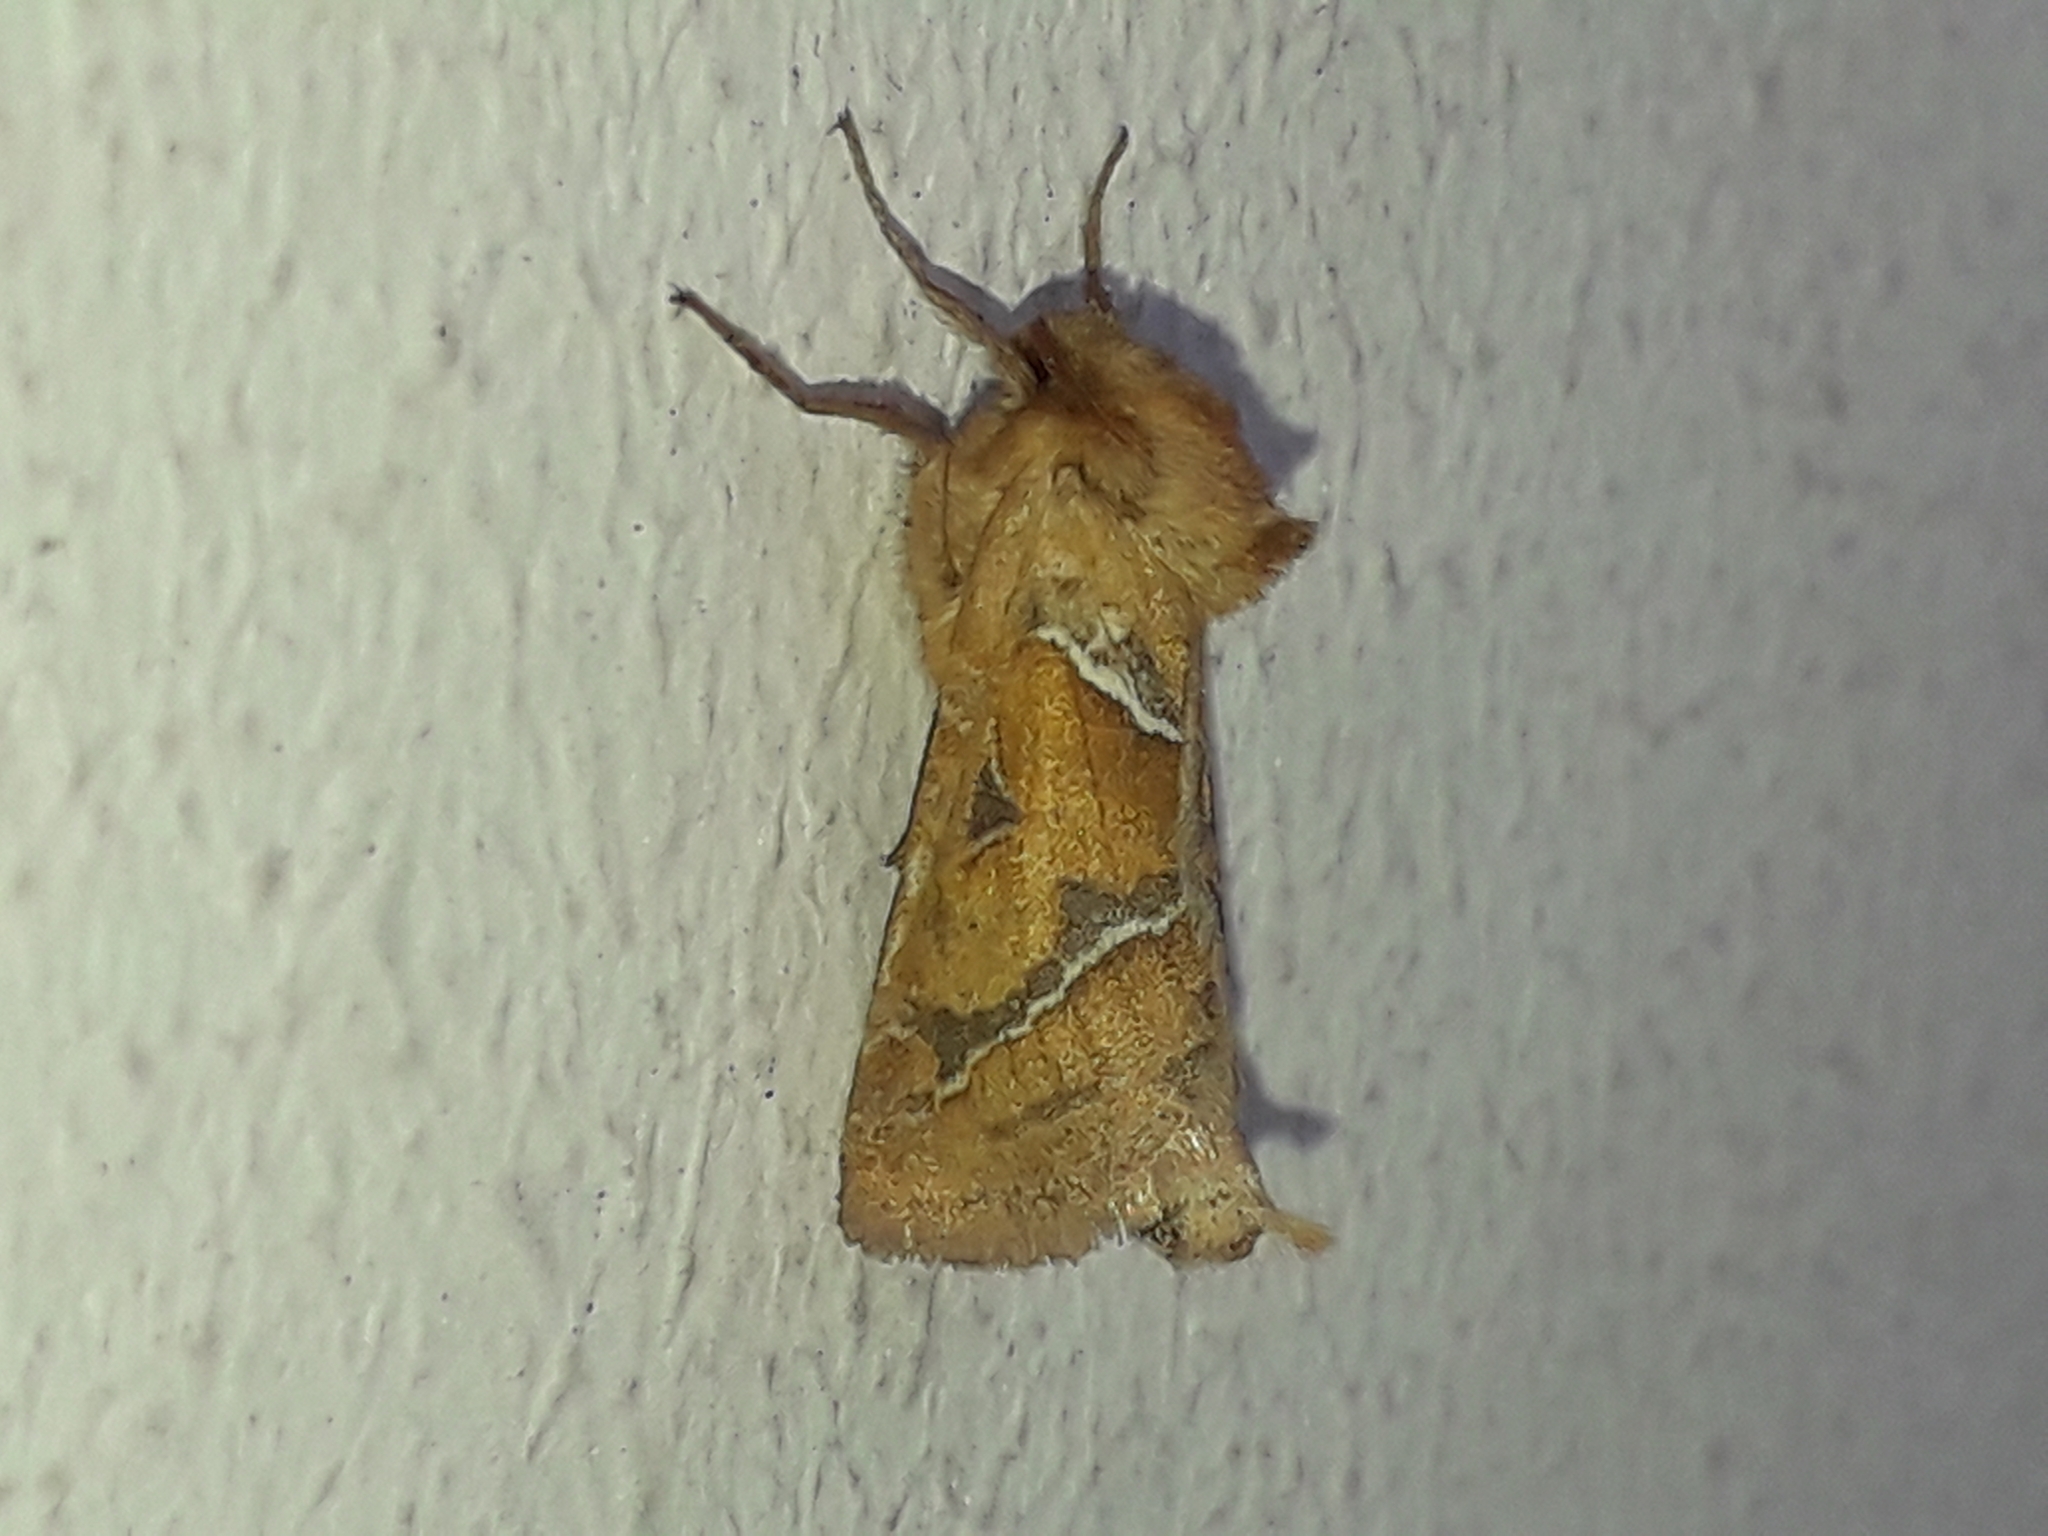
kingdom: Animalia
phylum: Arthropoda
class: Insecta
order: Lepidoptera
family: Hepialidae
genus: Triodia
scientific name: Triodia sylvina
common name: Orange swift
